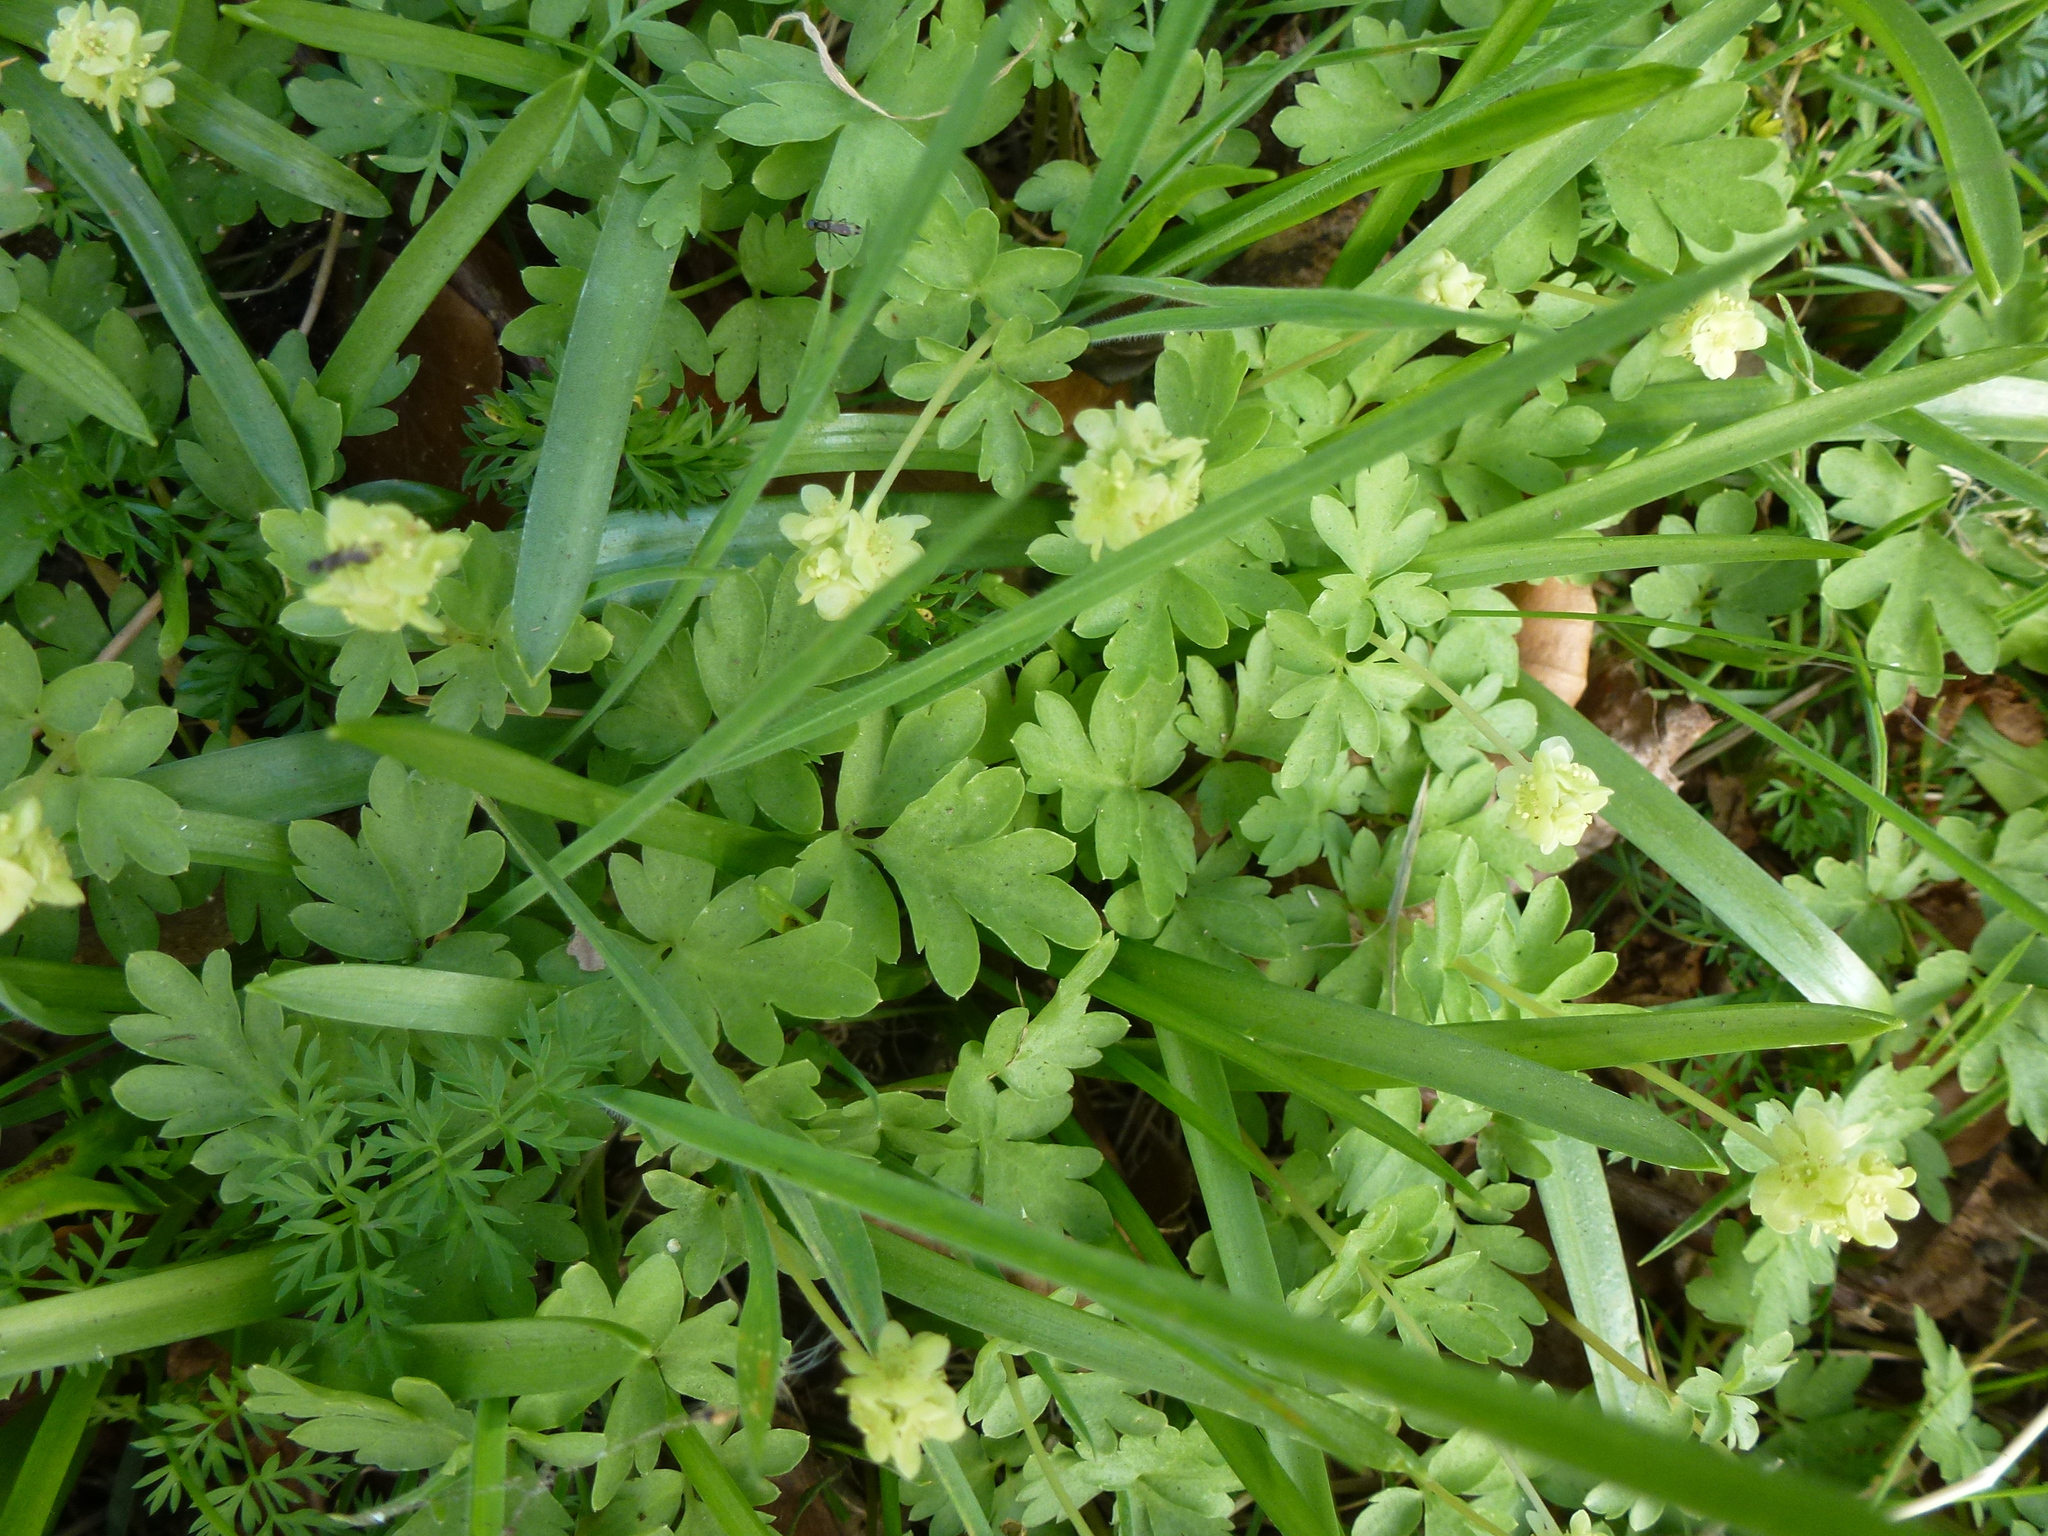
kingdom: Plantae
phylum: Tracheophyta
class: Magnoliopsida
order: Dipsacales
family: Viburnaceae
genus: Adoxa
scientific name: Adoxa moschatellina
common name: Moschatel
